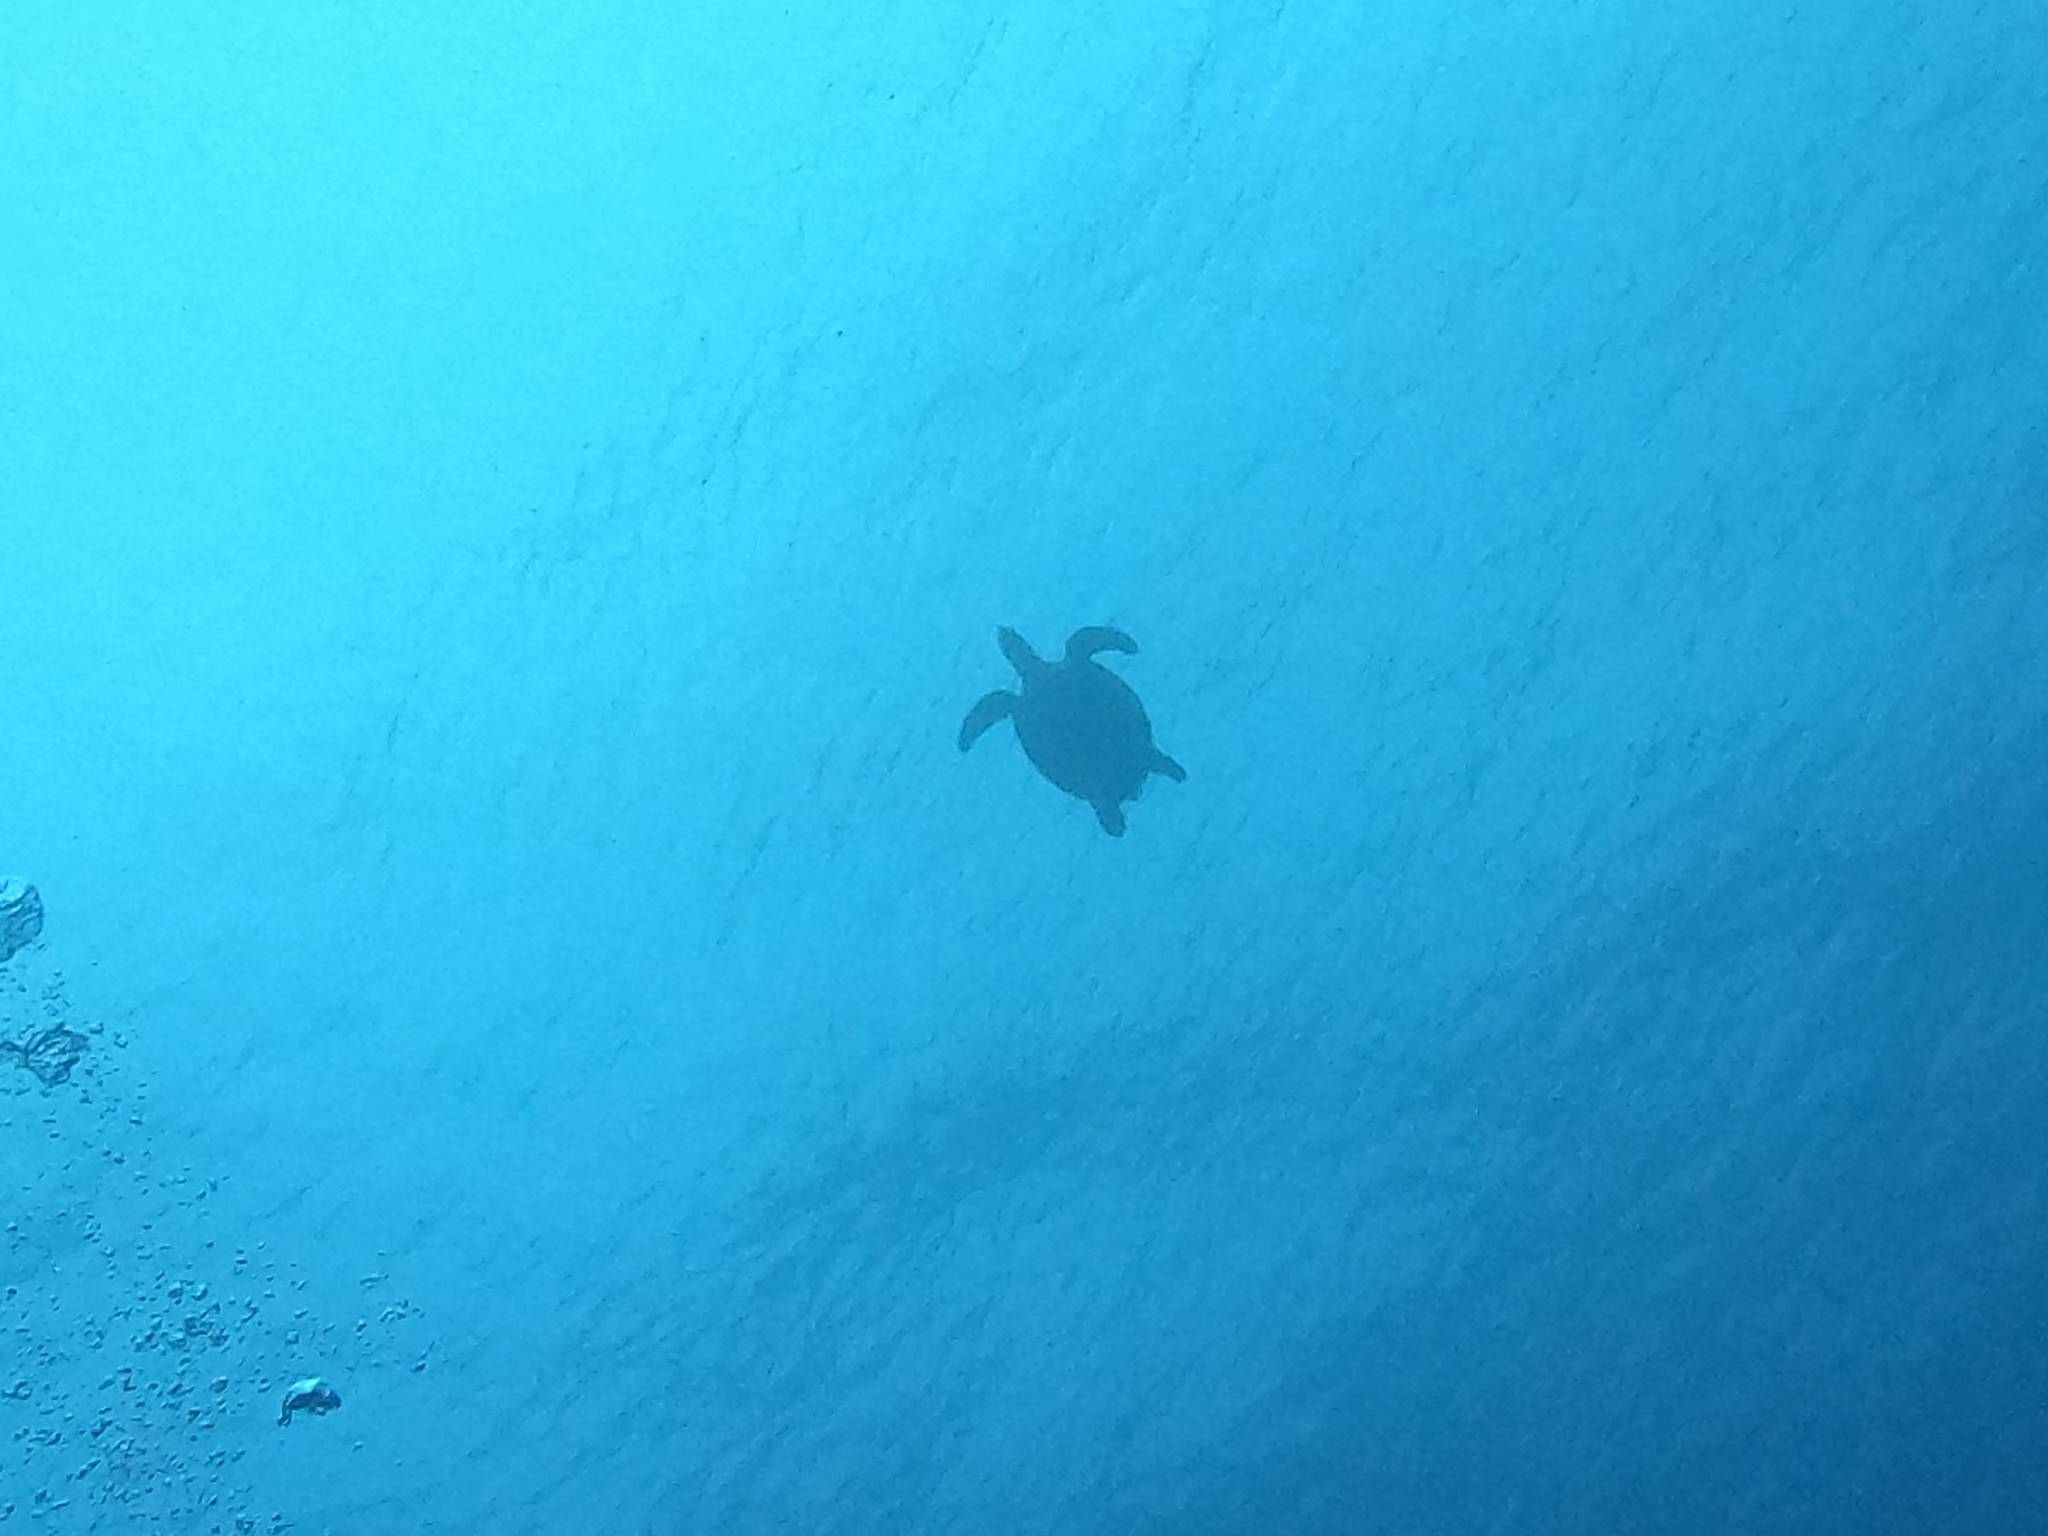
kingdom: Animalia
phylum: Chordata
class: Testudines
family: Cheloniidae
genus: Eretmochelys
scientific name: Eretmochelys imbricata
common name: Hawksbill turtle
